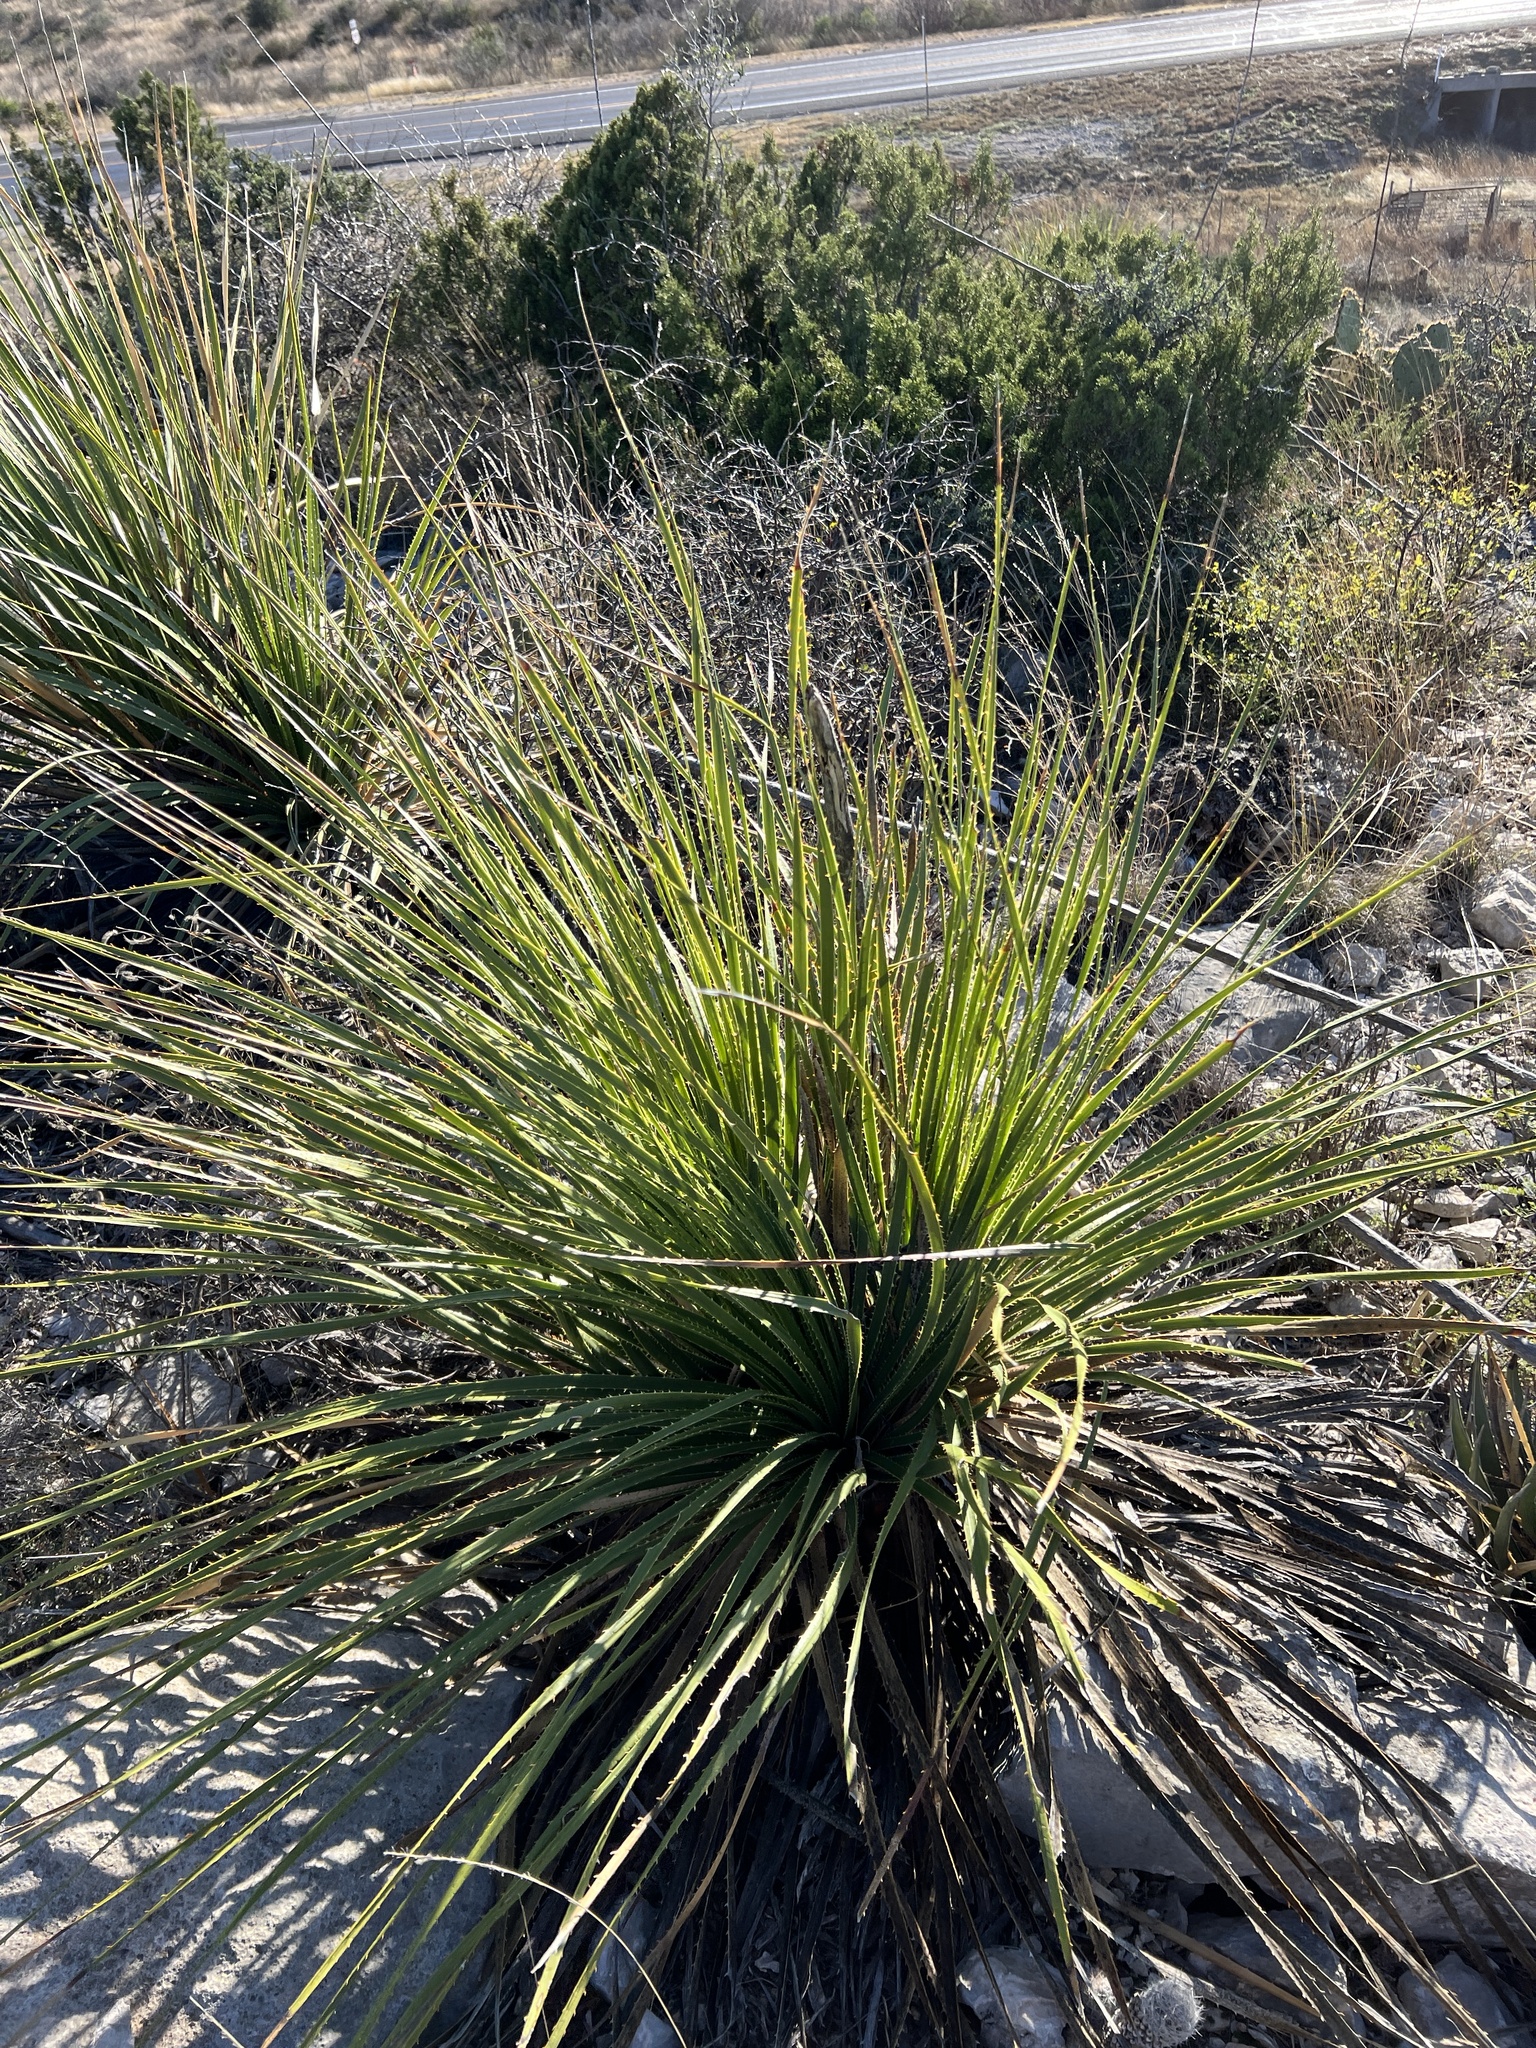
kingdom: Plantae
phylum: Tracheophyta
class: Liliopsida
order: Asparagales
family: Asparagaceae
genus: Dasylirion
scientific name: Dasylirion texanum
